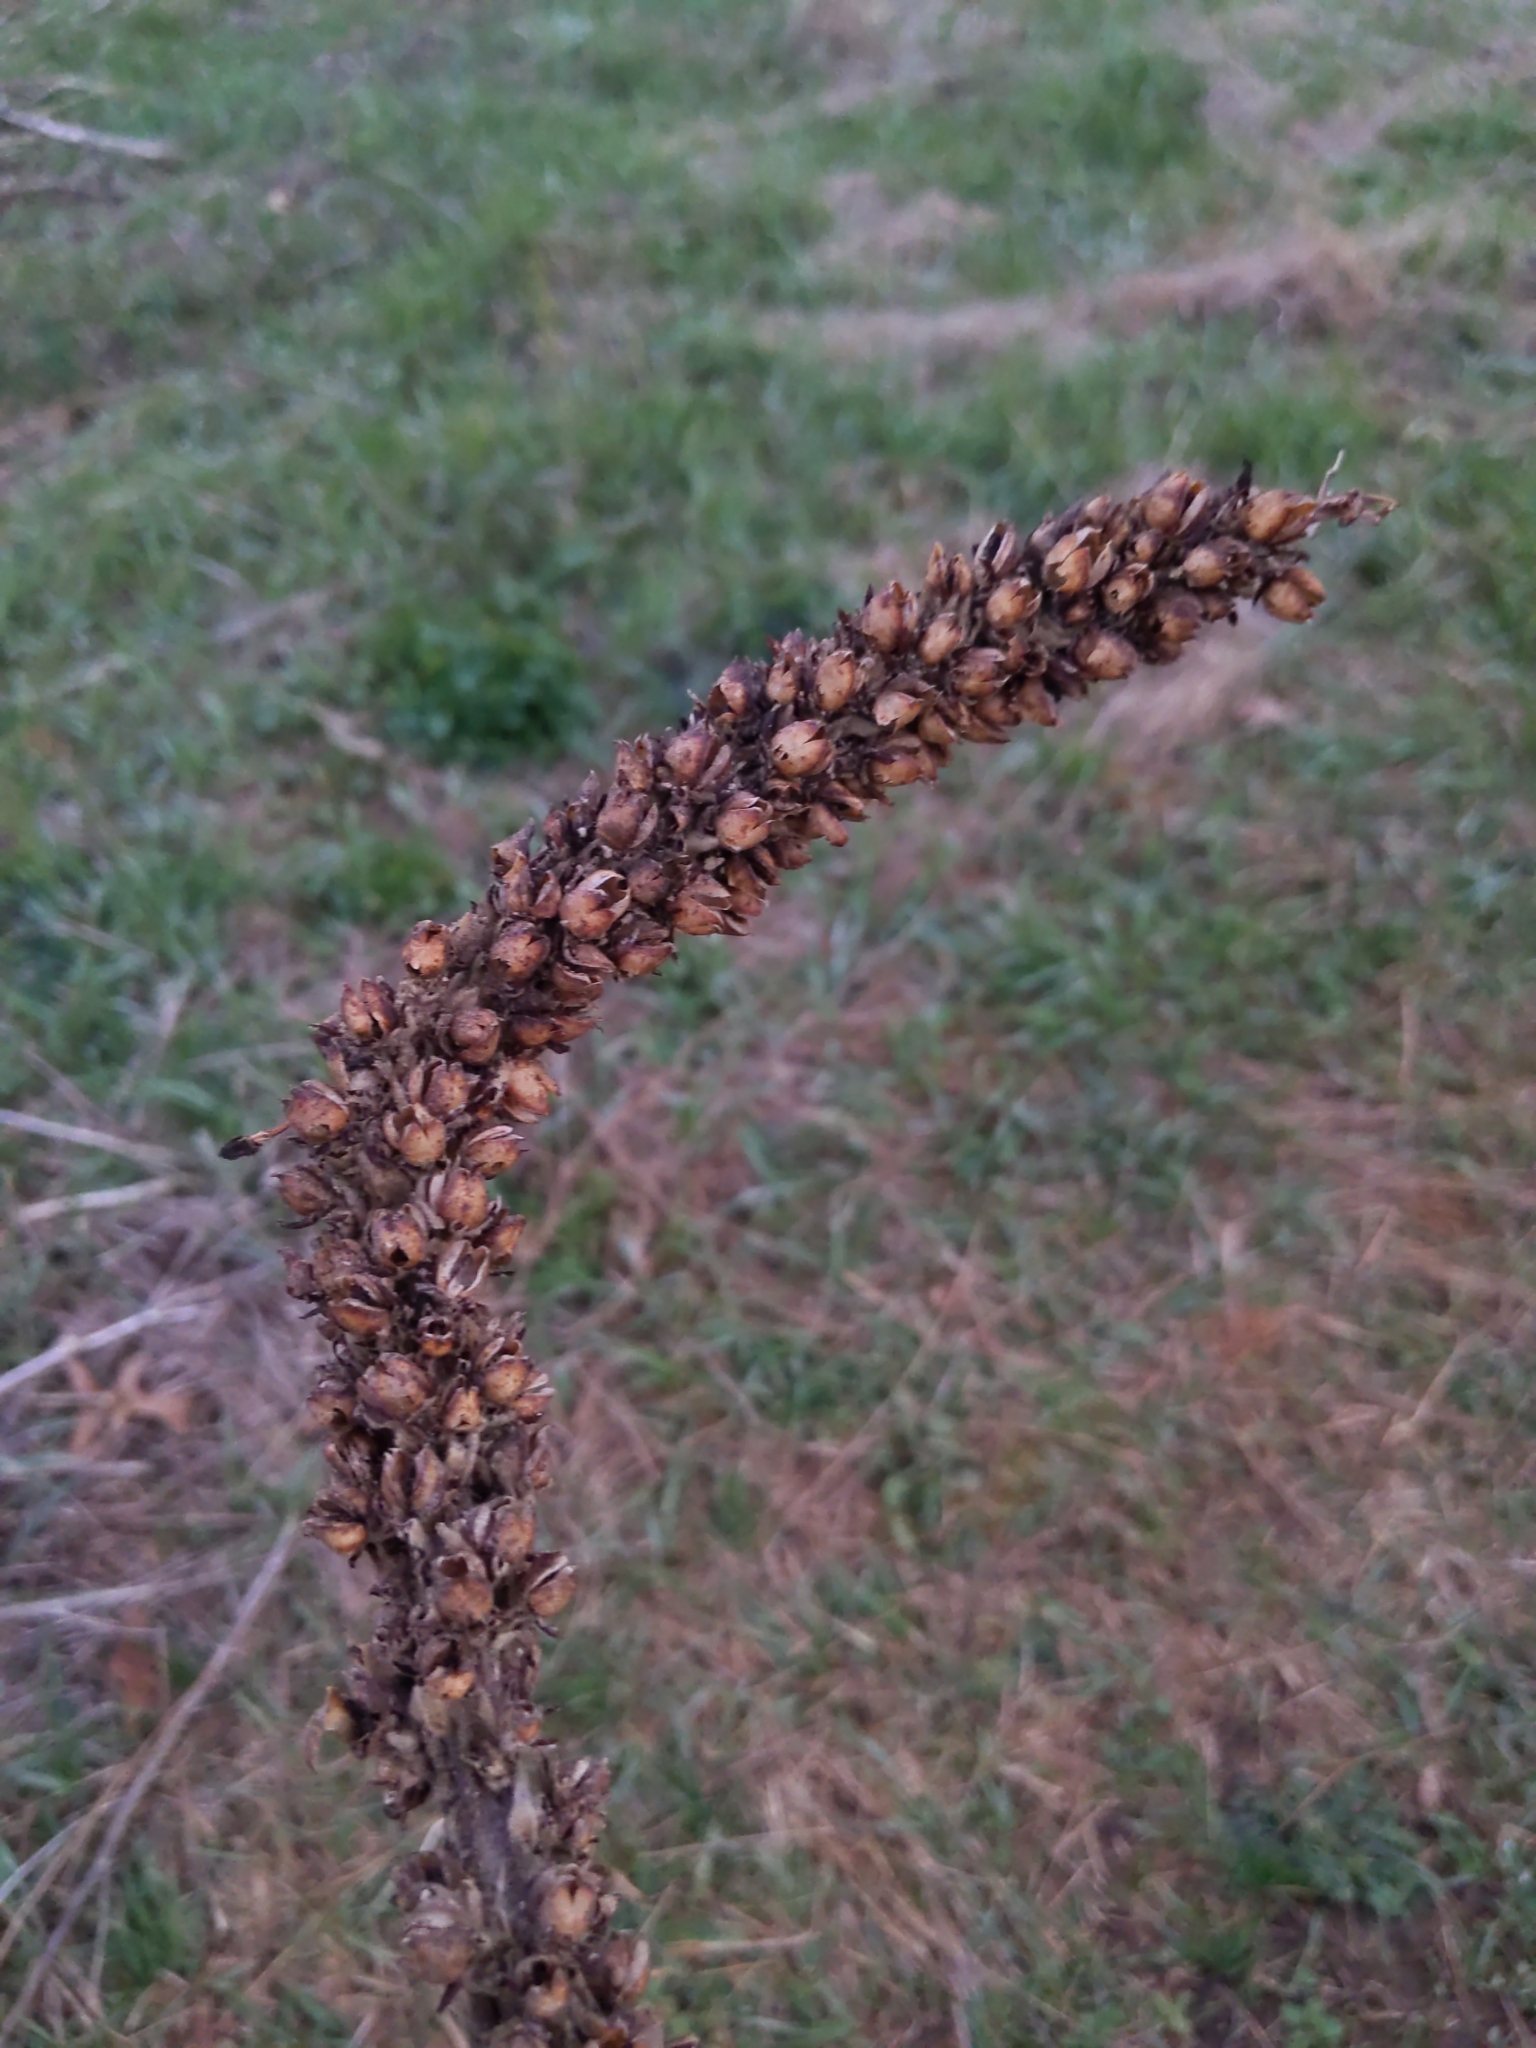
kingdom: Plantae
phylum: Tracheophyta
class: Magnoliopsida
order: Lamiales
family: Scrophulariaceae
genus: Verbascum
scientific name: Verbascum thapsus
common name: Common mullein
